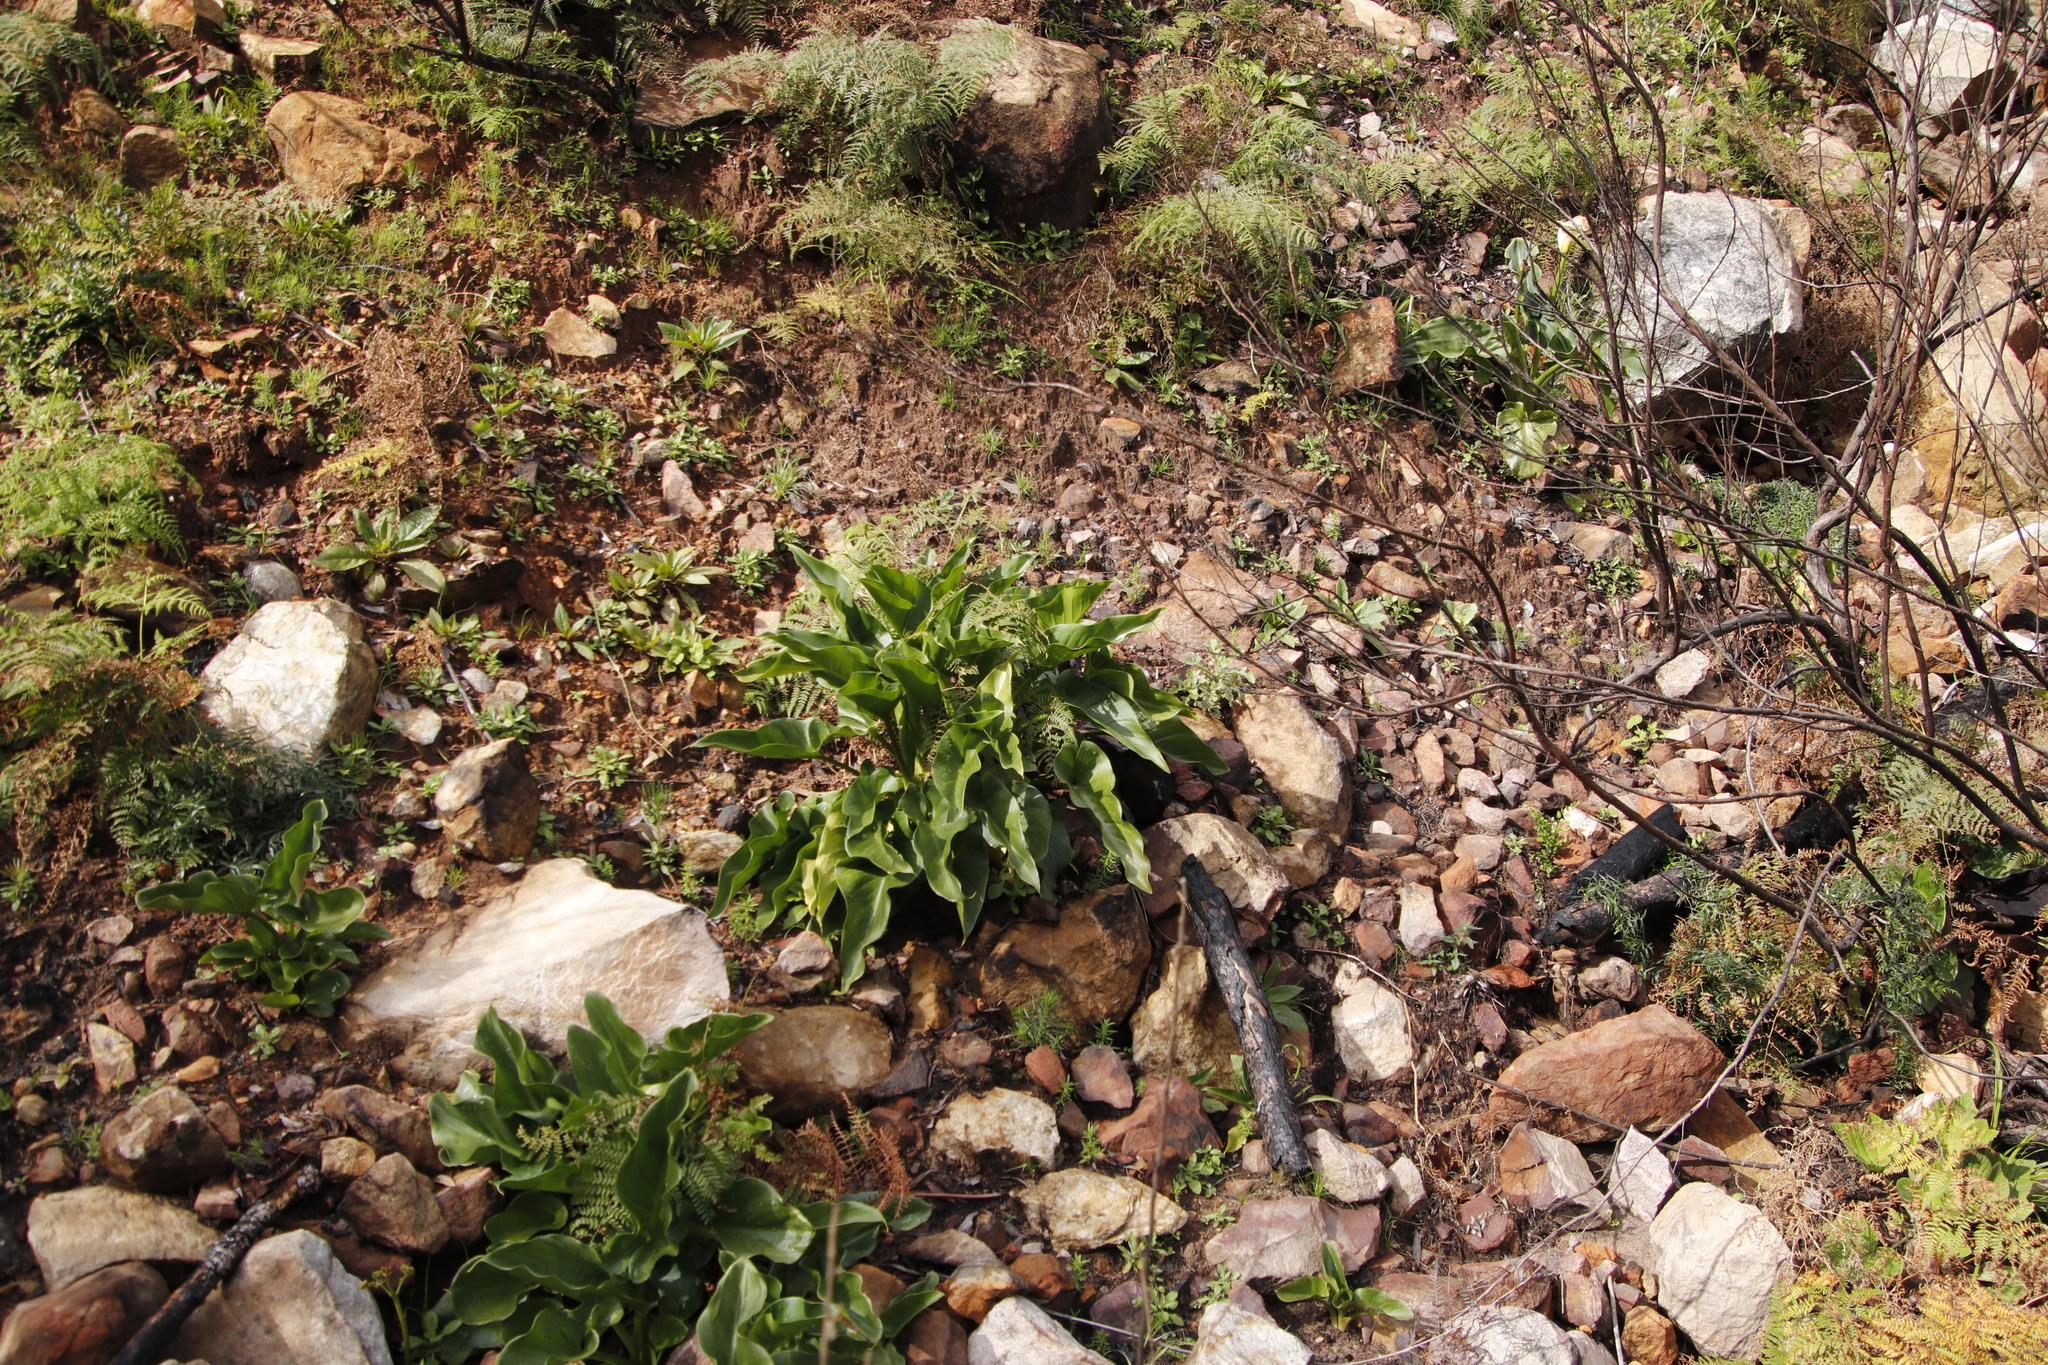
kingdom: Plantae
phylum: Tracheophyta
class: Liliopsida
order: Alismatales
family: Araceae
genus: Zantedeschia
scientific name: Zantedeschia aethiopica
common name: Altar-lily
